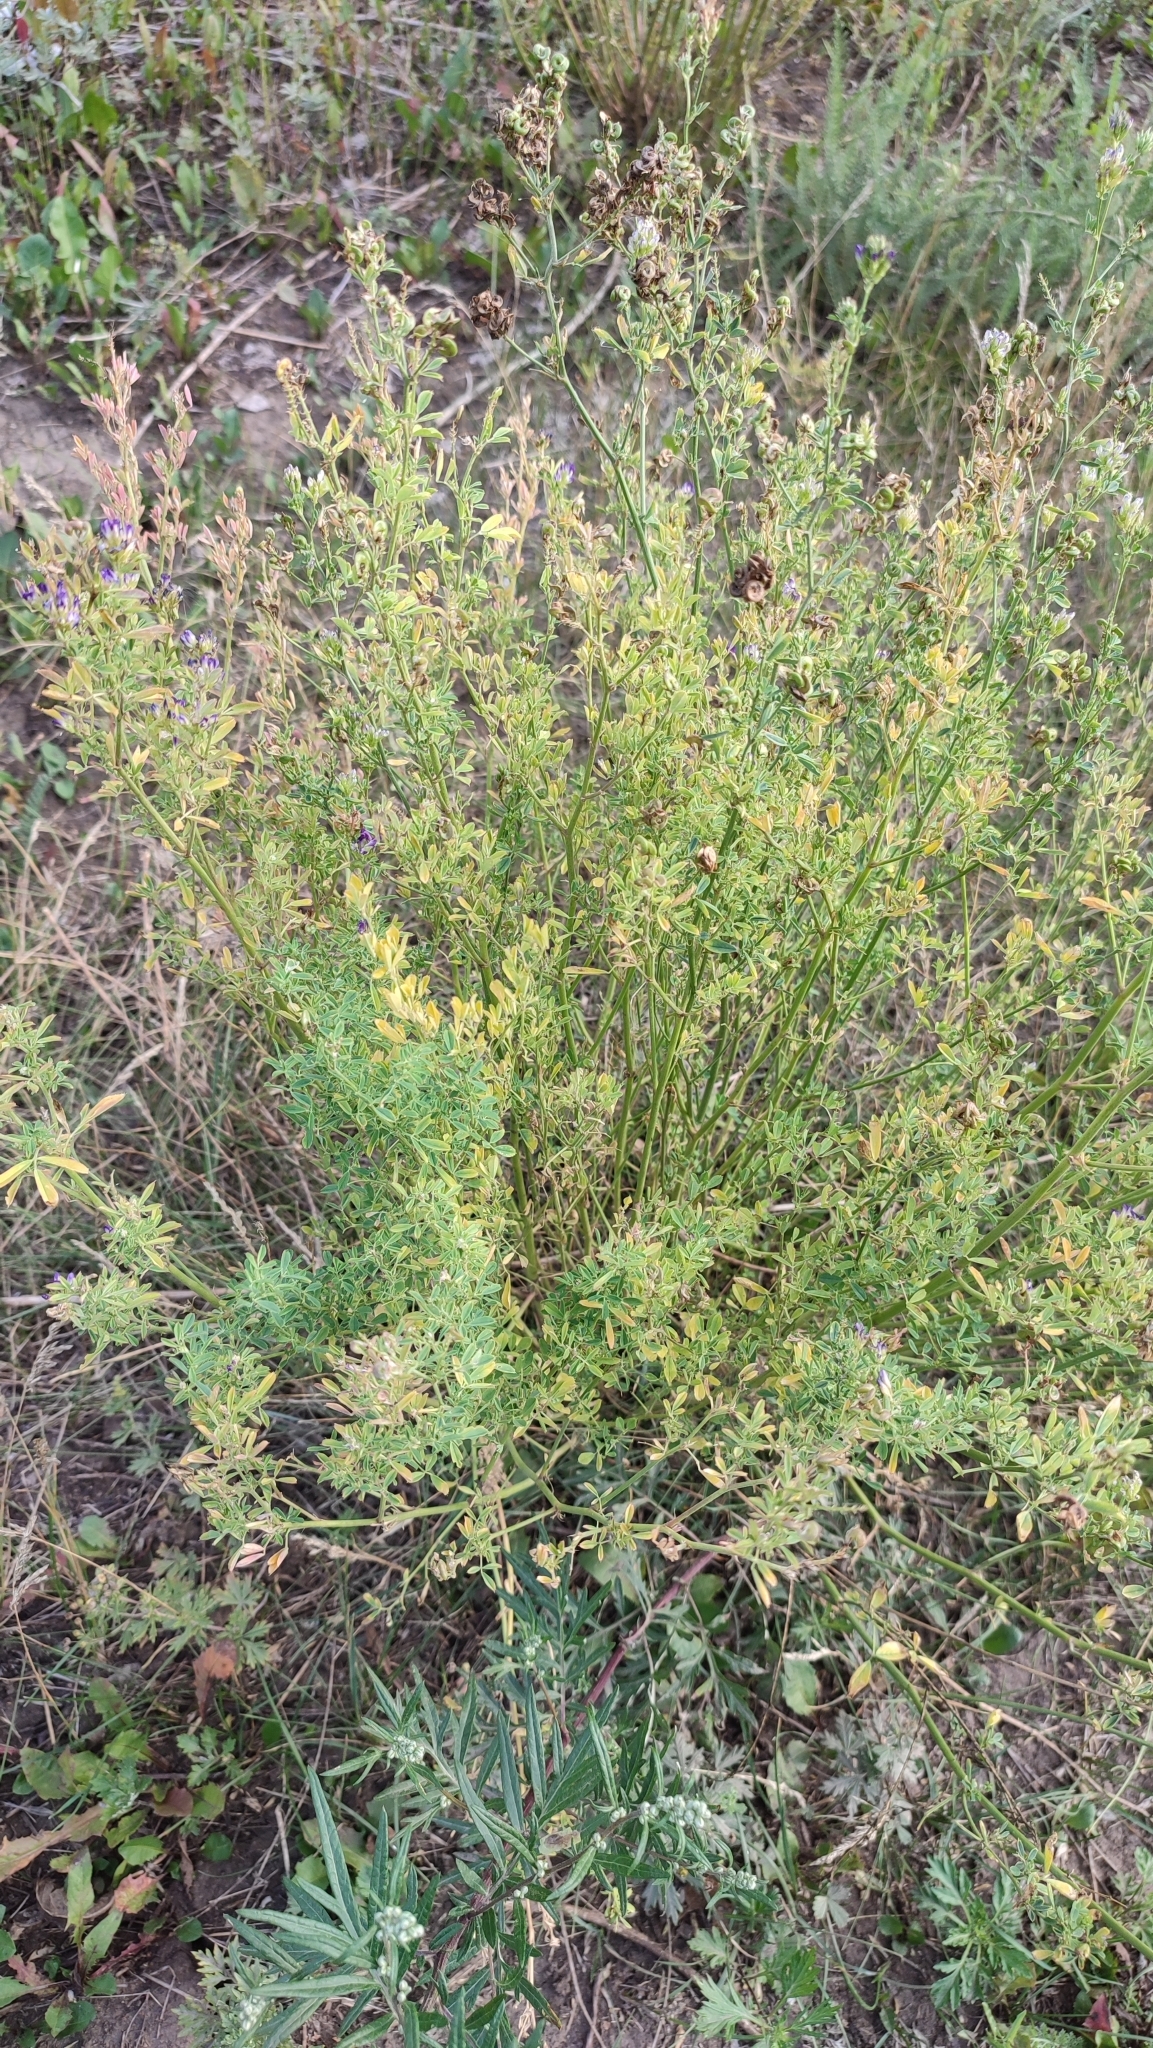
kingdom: Plantae
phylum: Tracheophyta
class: Magnoliopsida
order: Fabales
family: Fabaceae
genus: Medicago
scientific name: Medicago varia
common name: Sand lucerne
